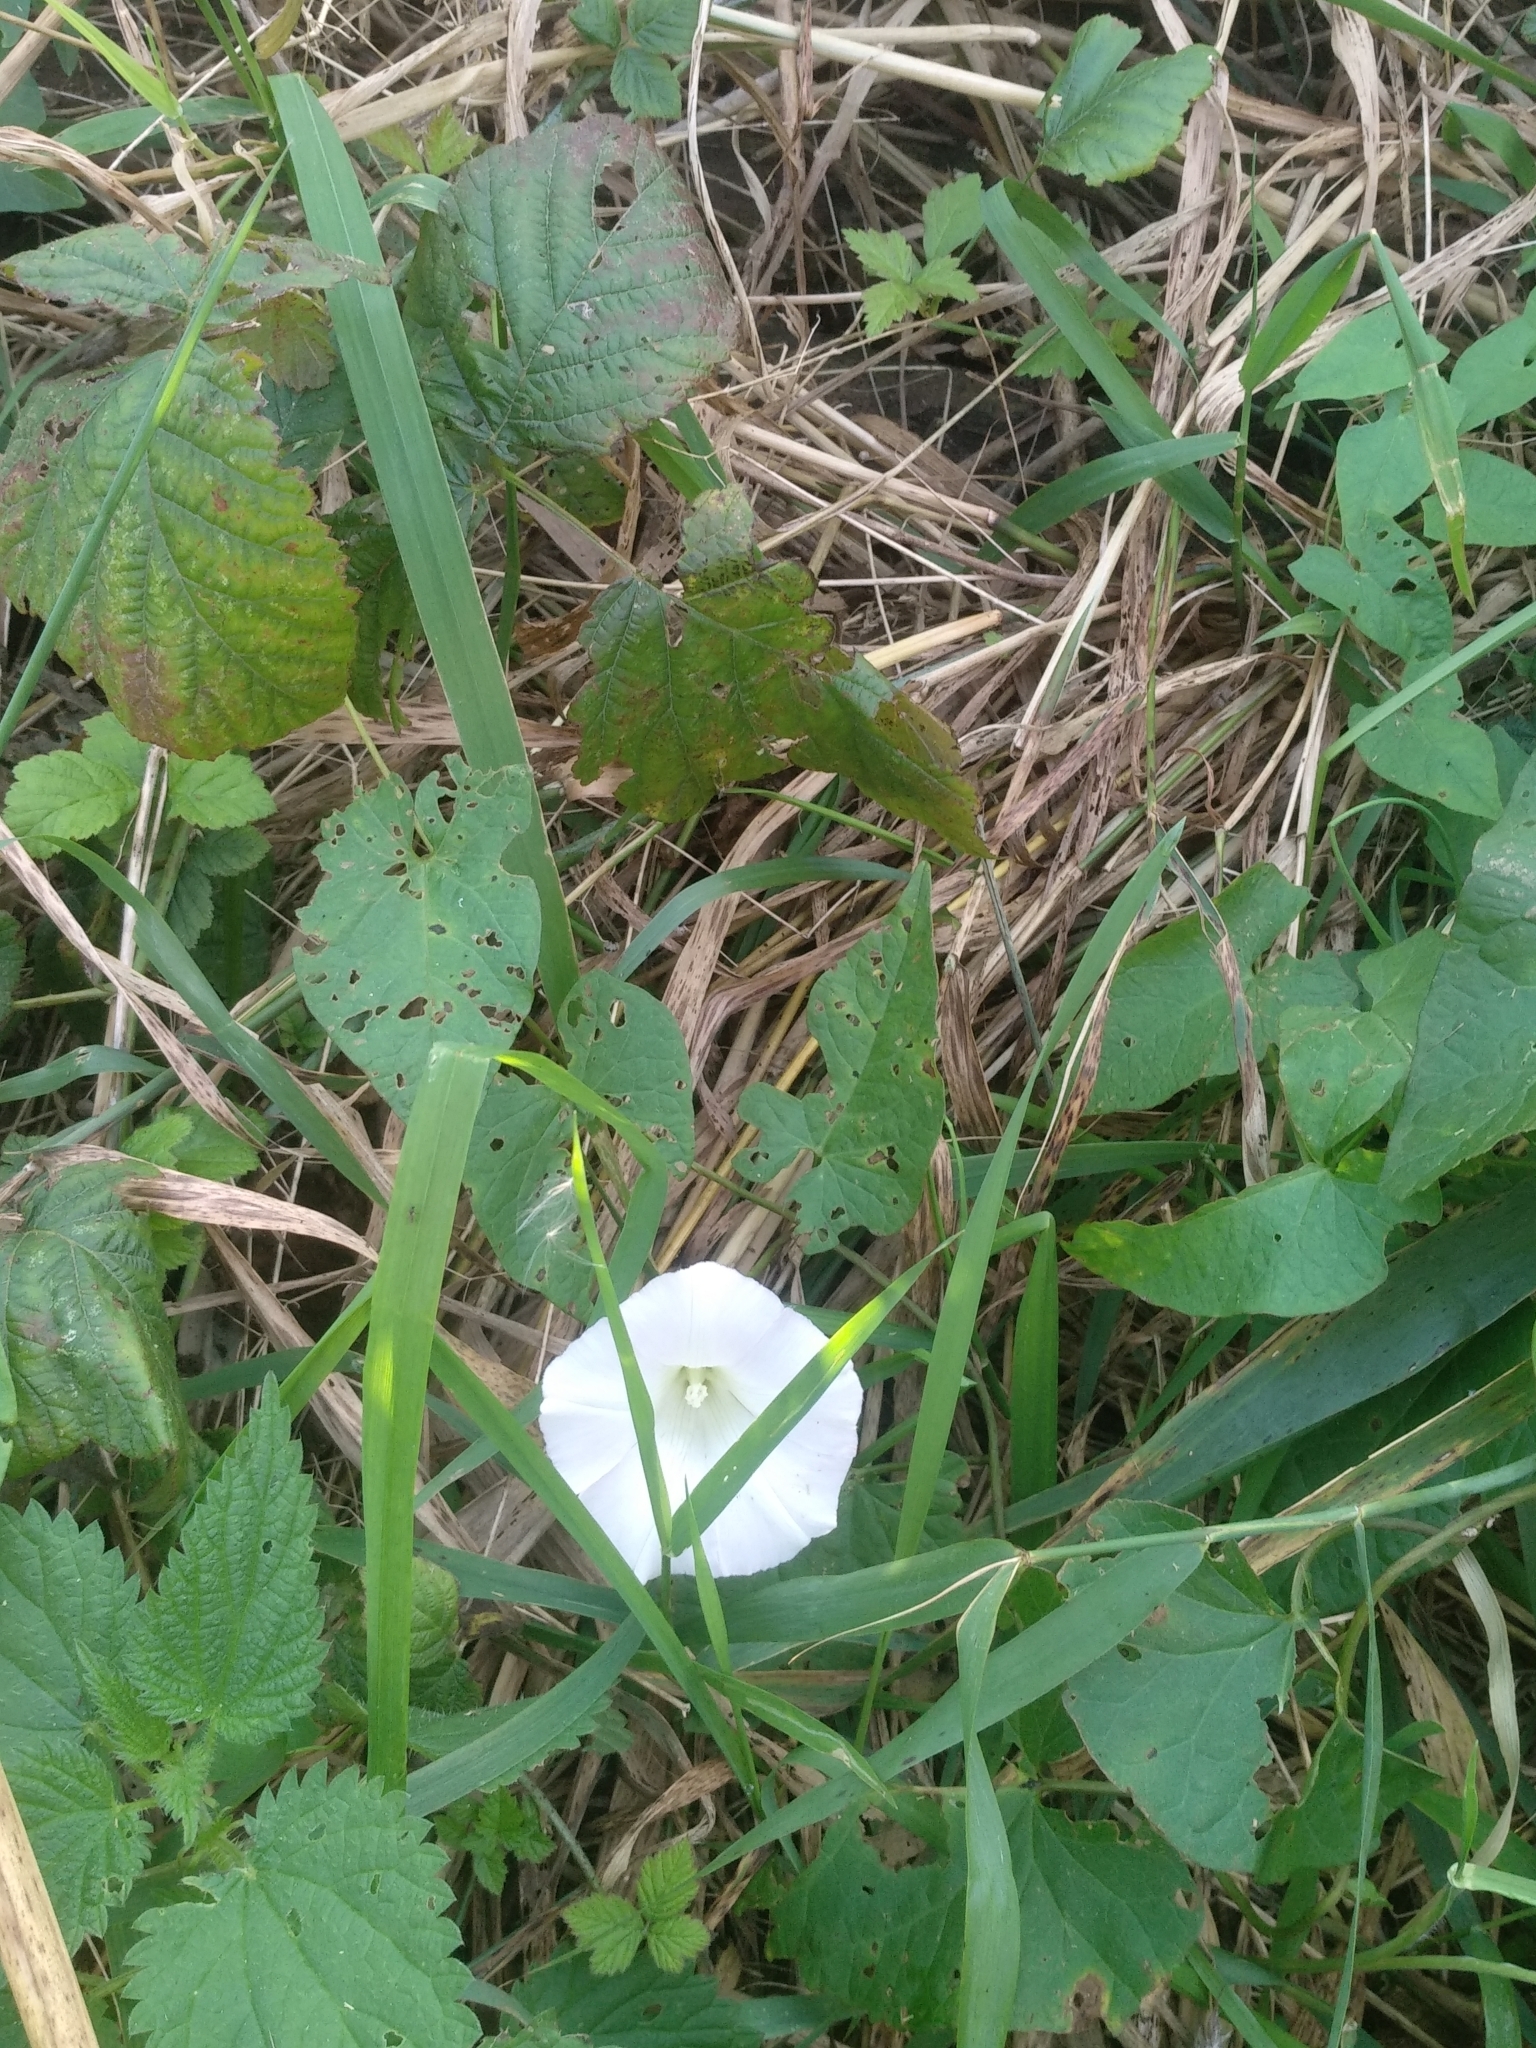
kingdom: Plantae
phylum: Tracheophyta
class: Magnoliopsida
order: Solanales
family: Convolvulaceae
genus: Calystegia
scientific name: Calystegia sepium
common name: Hedge bindweed
